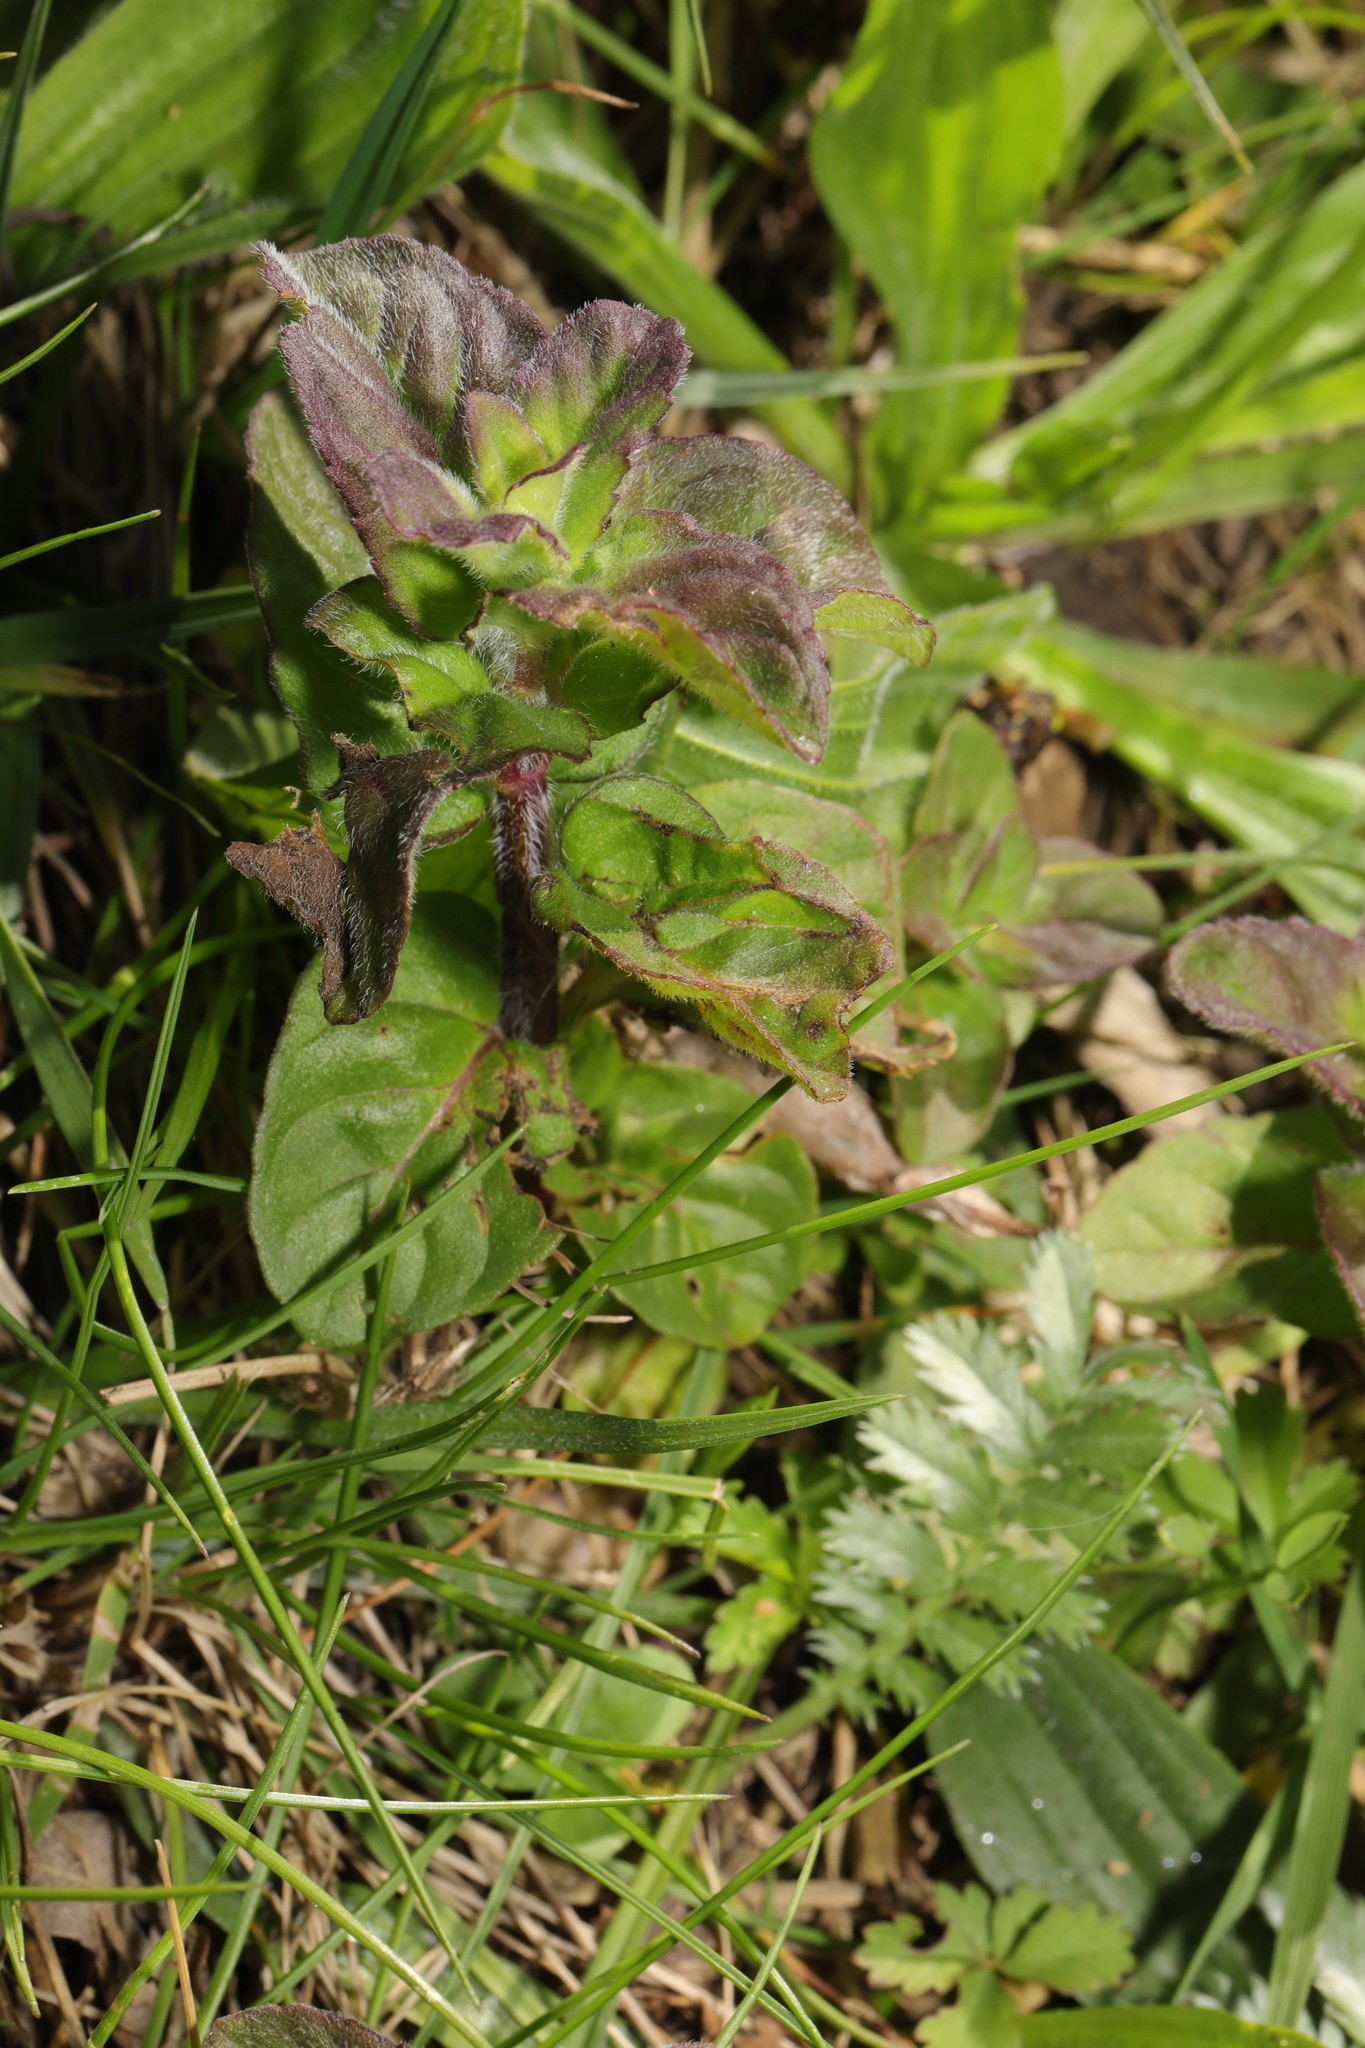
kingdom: Plantae
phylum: Tracheophyta
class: Magnoliopsida
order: Lamiales
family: Lamiaceae
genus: Mentha
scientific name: Mentha aquatica
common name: Water mint
